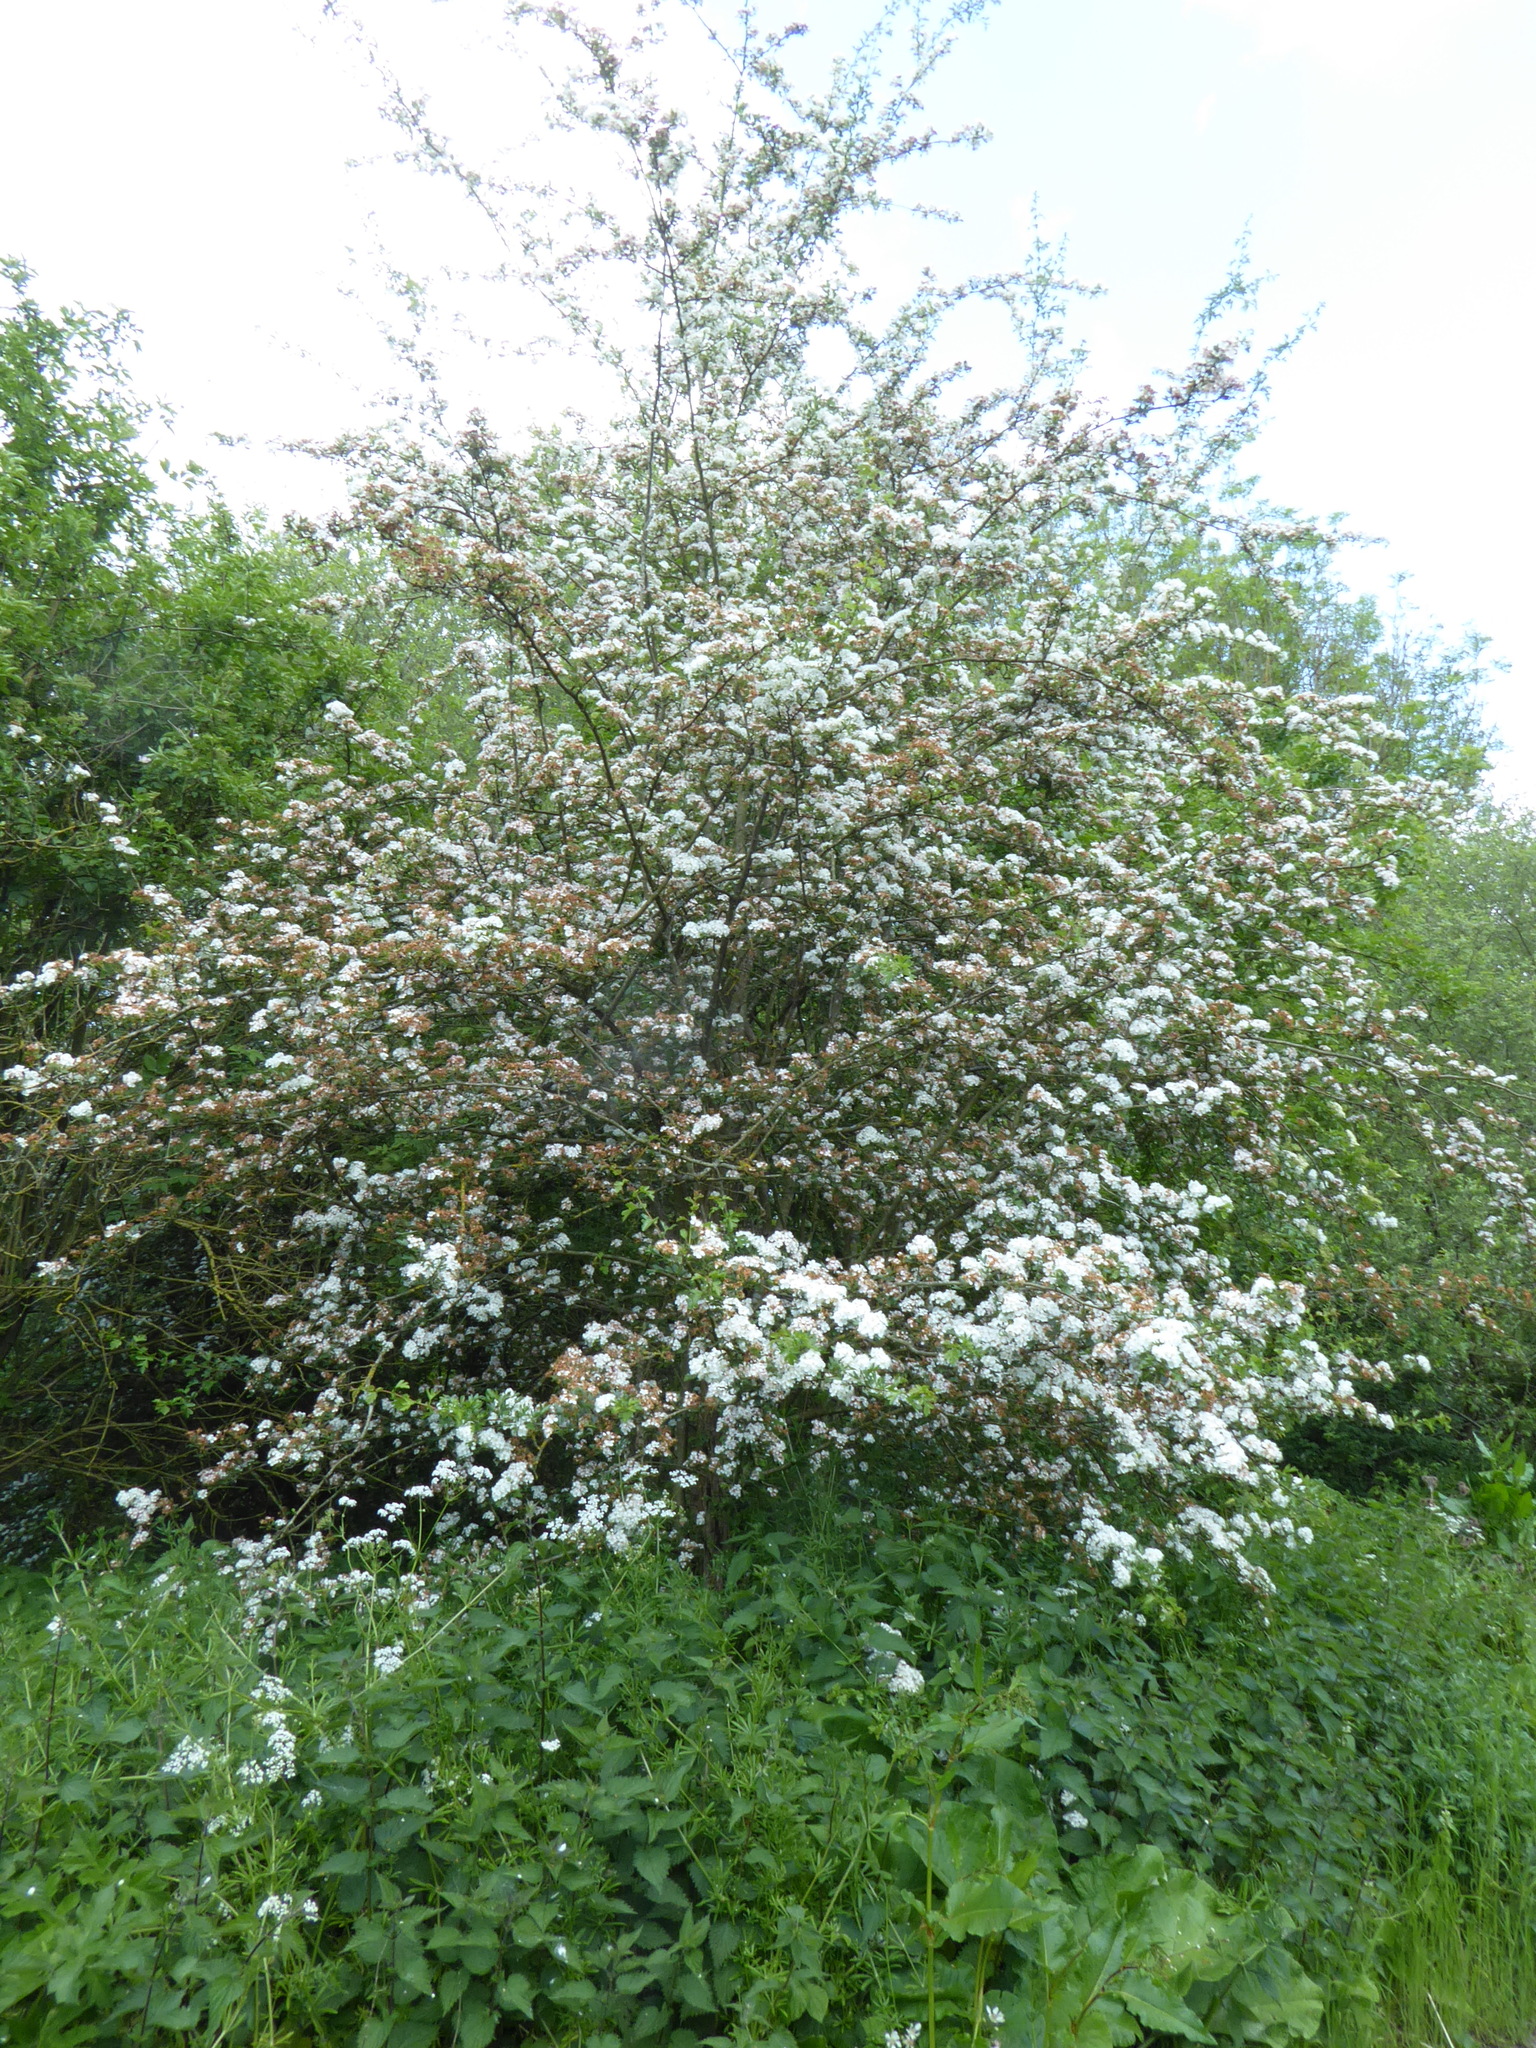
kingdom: Plantae
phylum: Tracheophyta
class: Magnoliopsida
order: Rosales
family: Rosaceae
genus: Crataegus
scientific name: Crataegus monogyna
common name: Hawthorn
